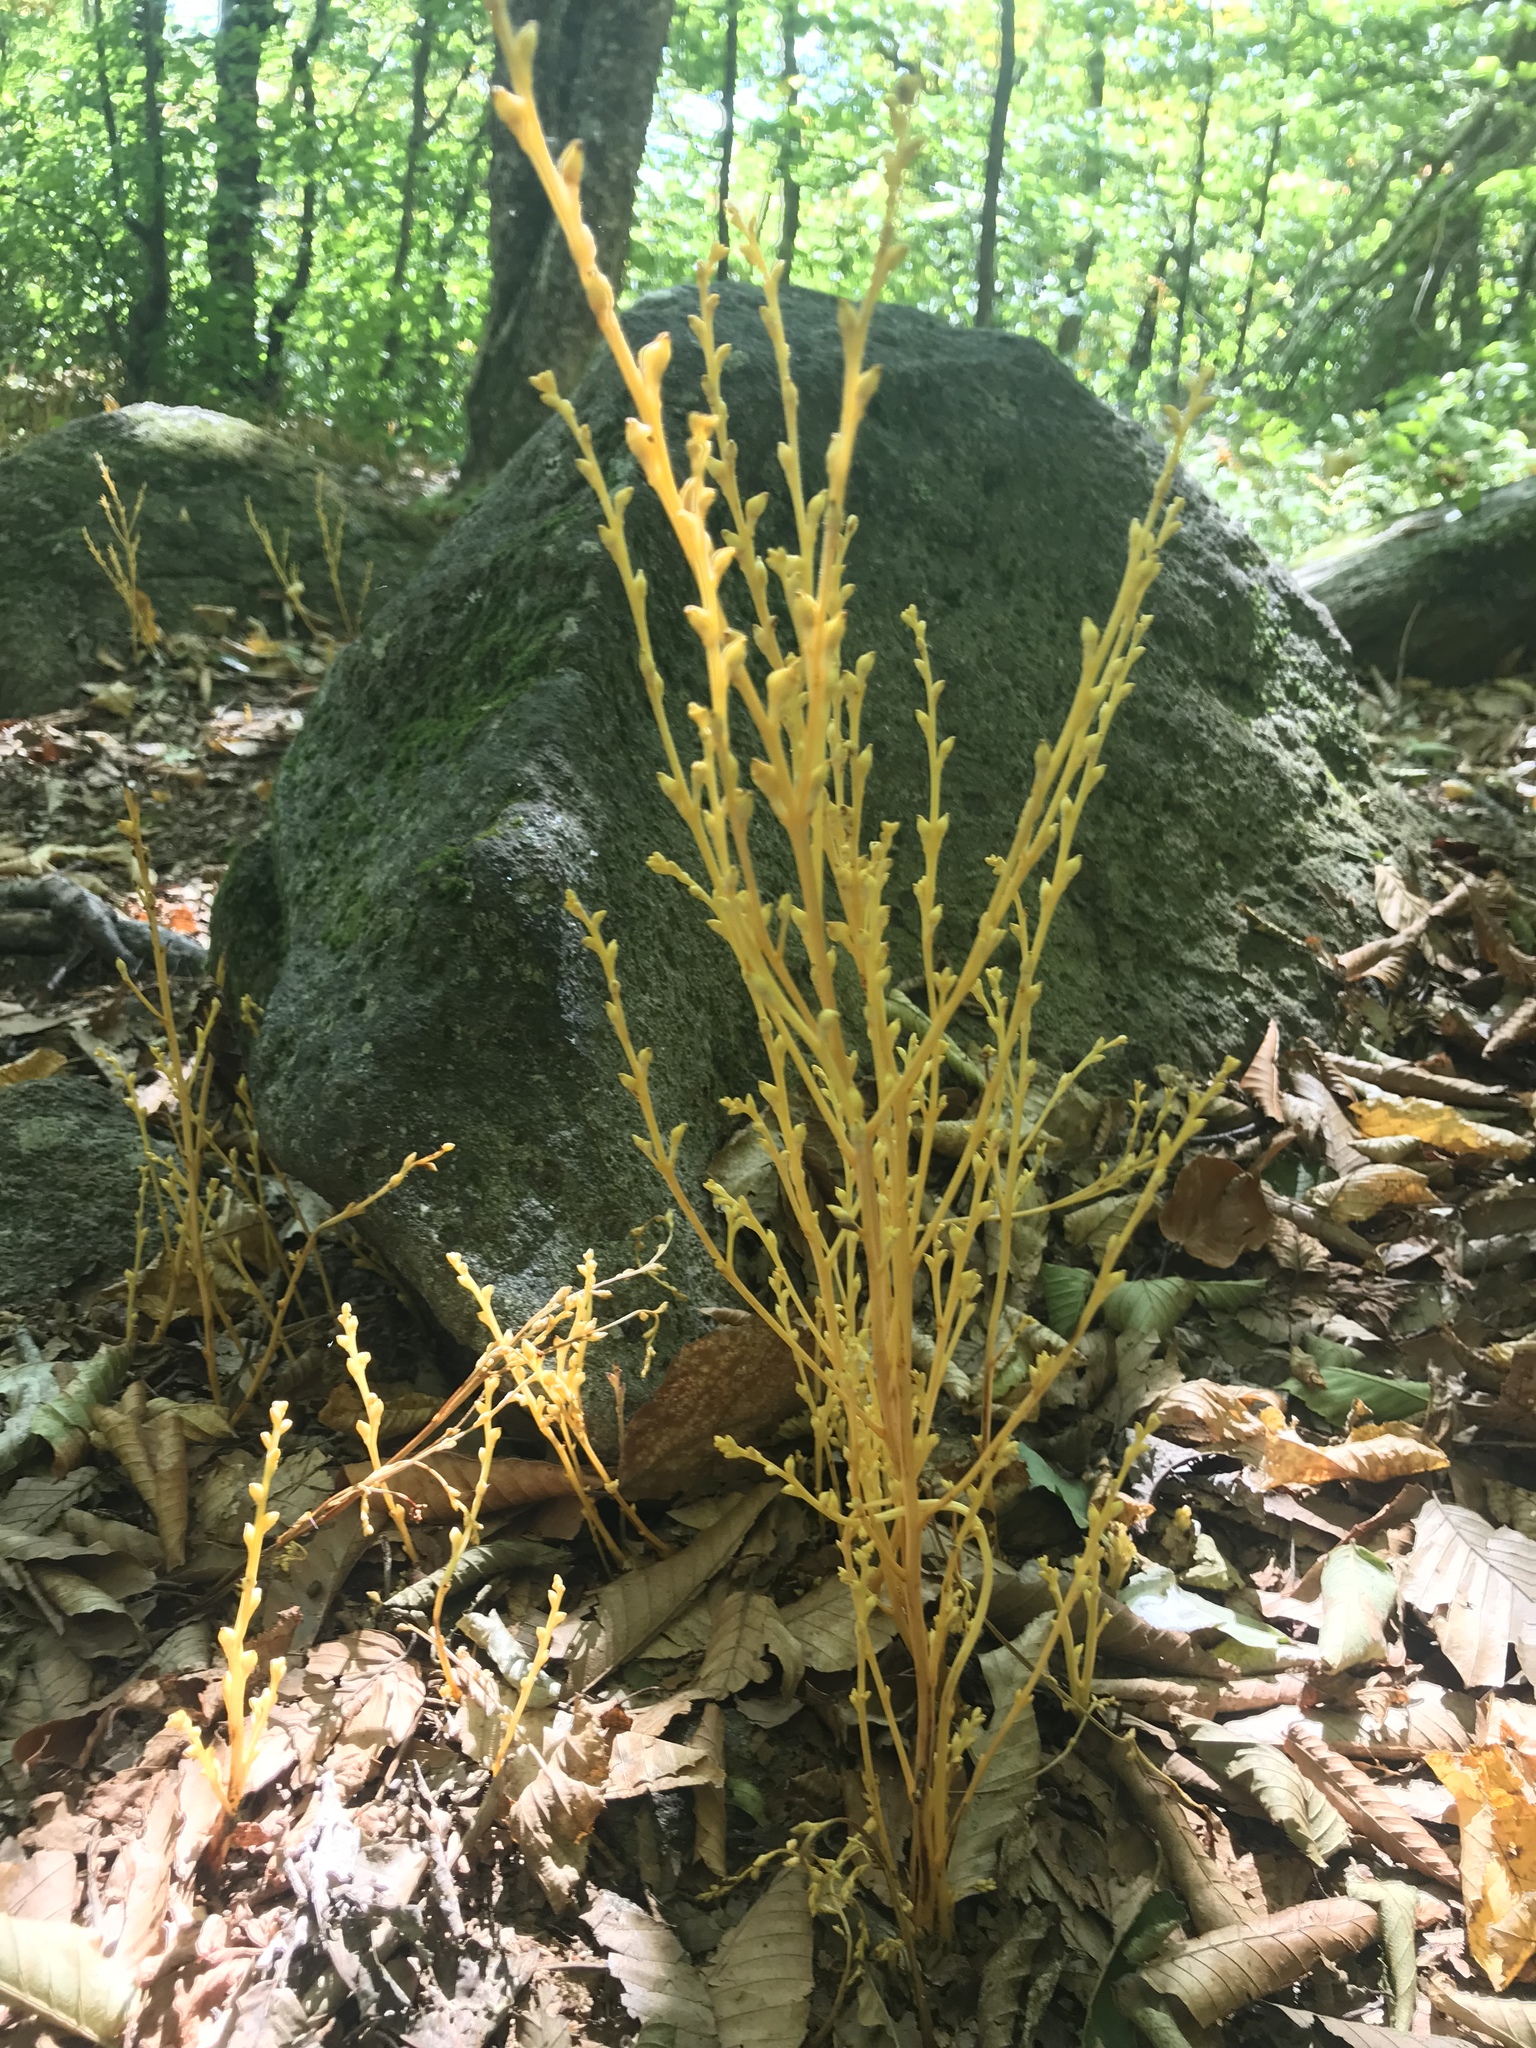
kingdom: Plantae
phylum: Tracheophyta
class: Magnoliopsida
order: Lamiales
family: Orobanchaceae
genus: Epifagus
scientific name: Epifagus virginiana
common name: Beechdrops
